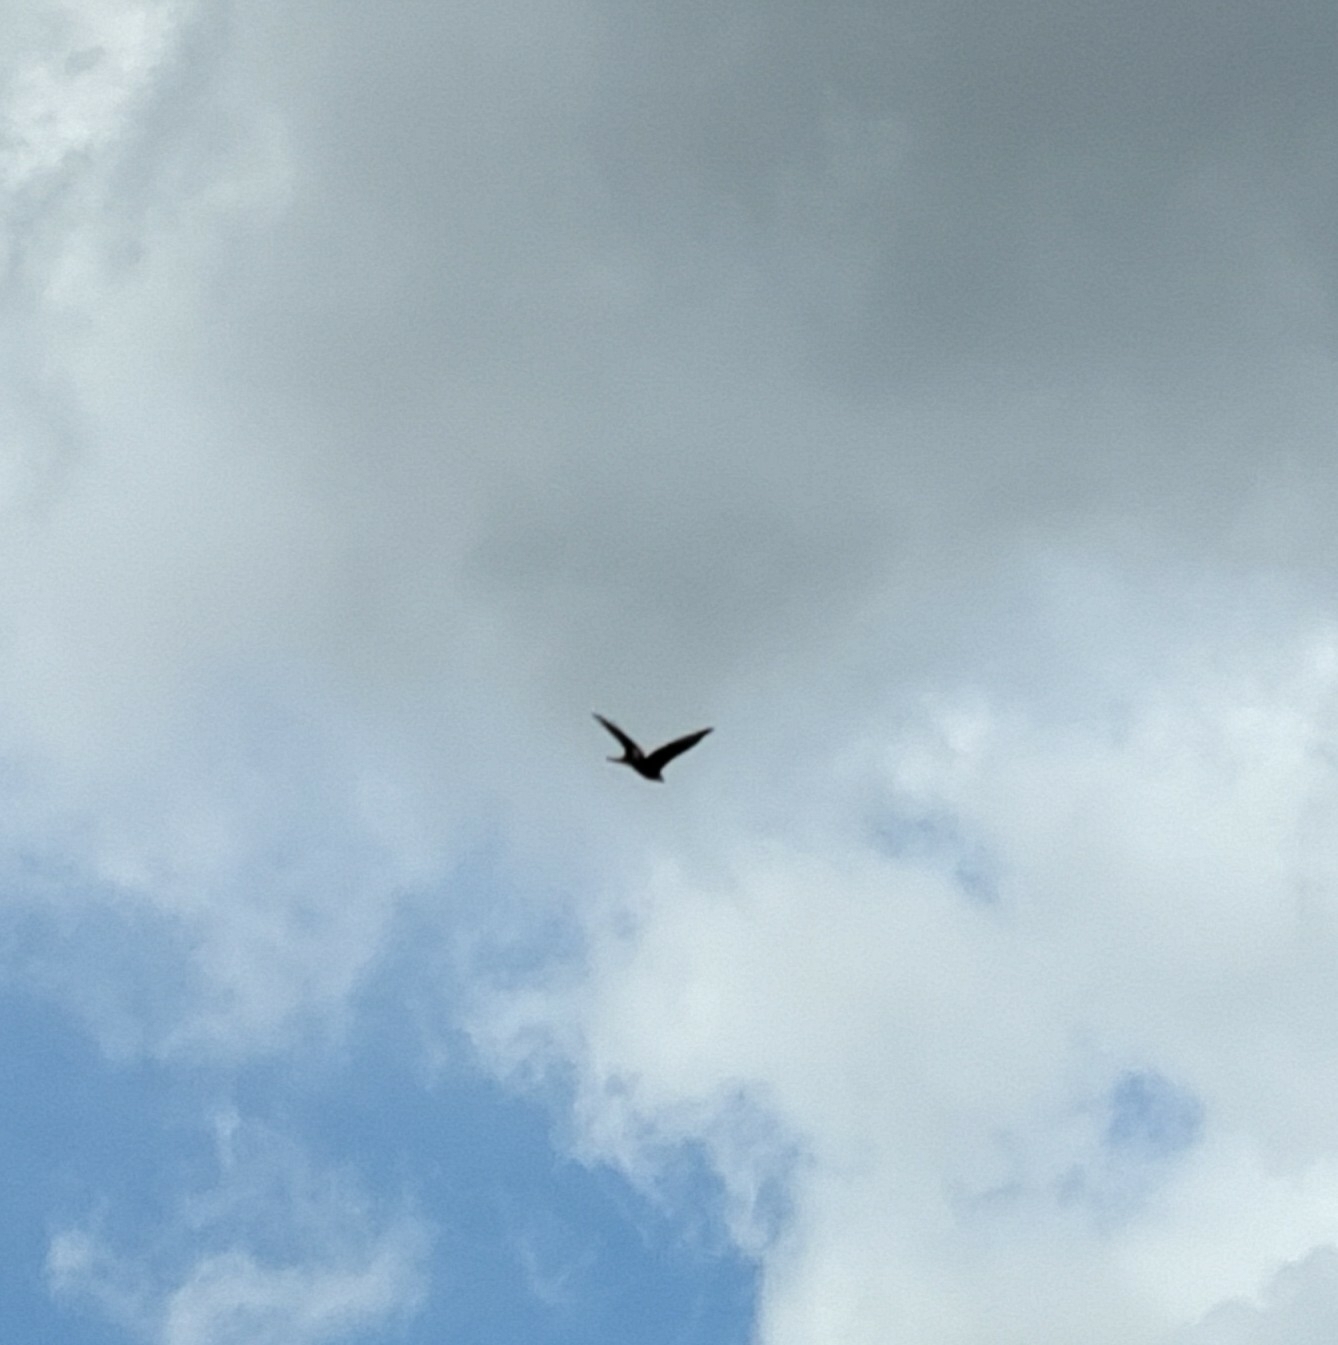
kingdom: Animalia
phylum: Chordata
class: Aves
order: Accipitriformes
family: Accipitridae
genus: Milvus
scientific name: Milvus milvus
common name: Red kite
